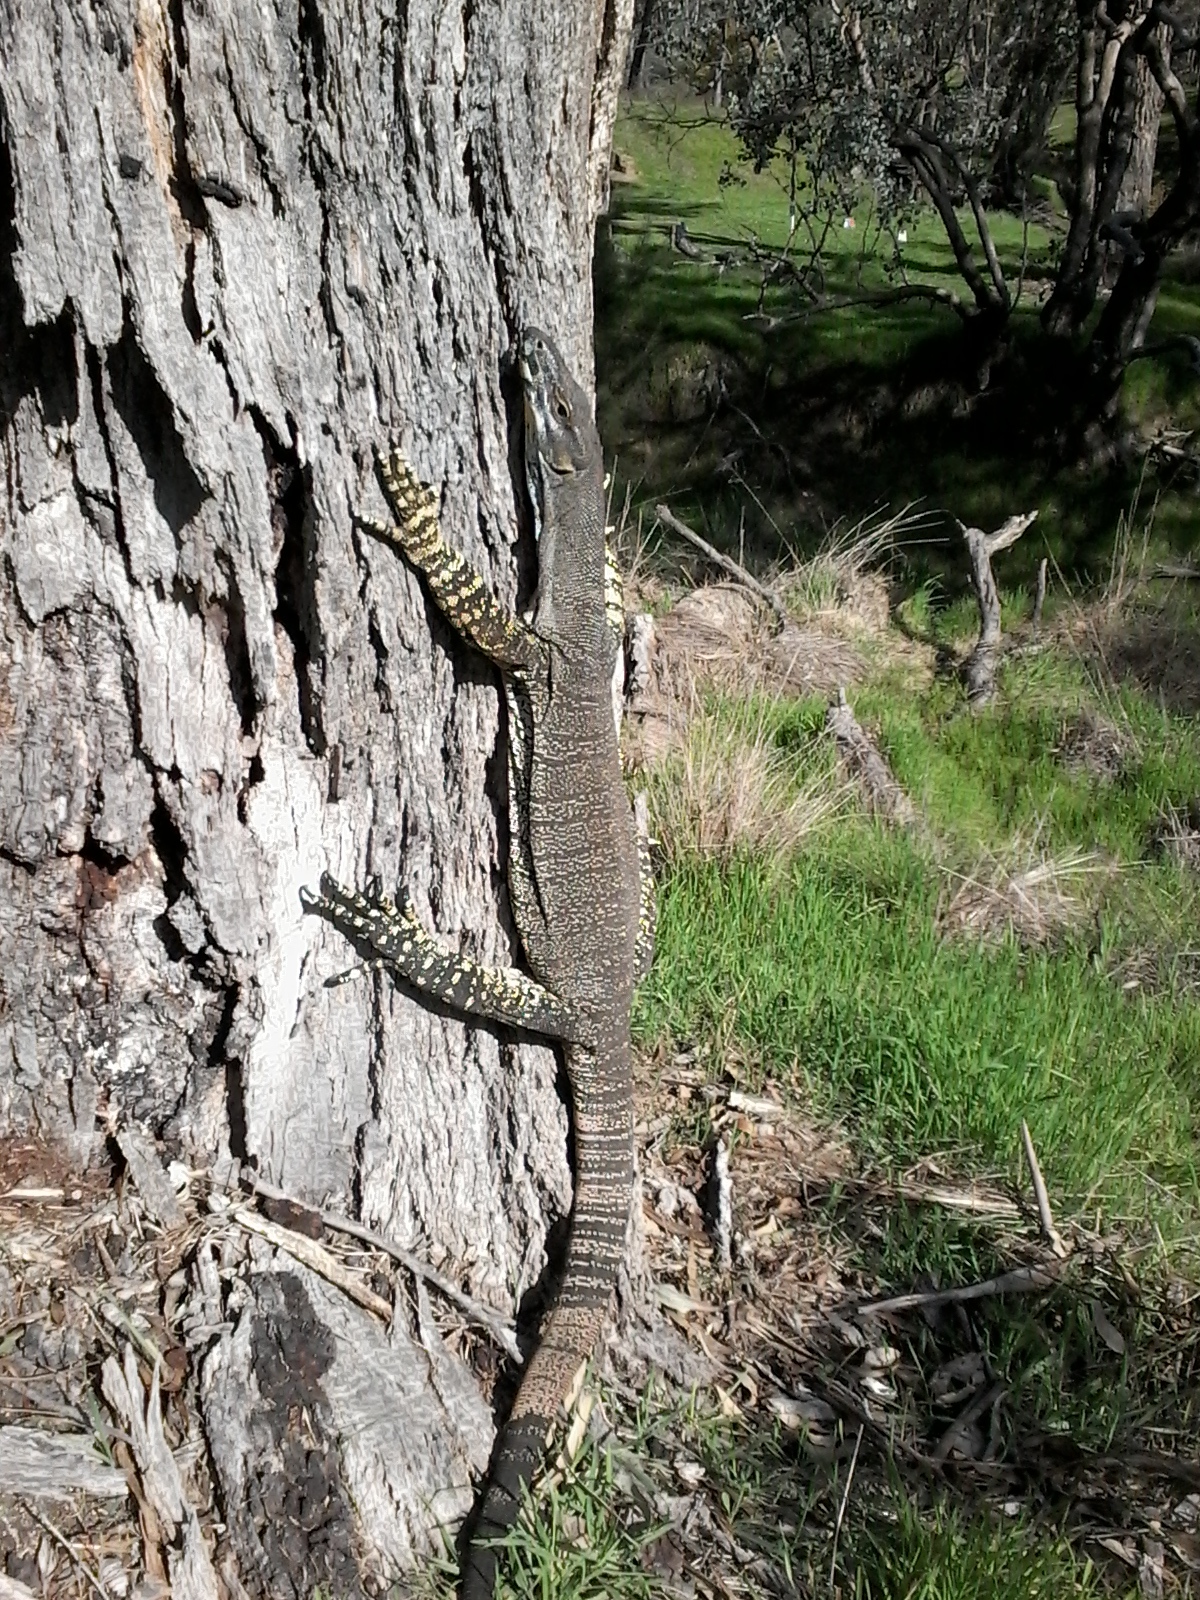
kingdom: Animalia
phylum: Chordata
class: Squamata
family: Varanidae
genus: Varanus
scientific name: Varanus varius
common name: Lace monitor
